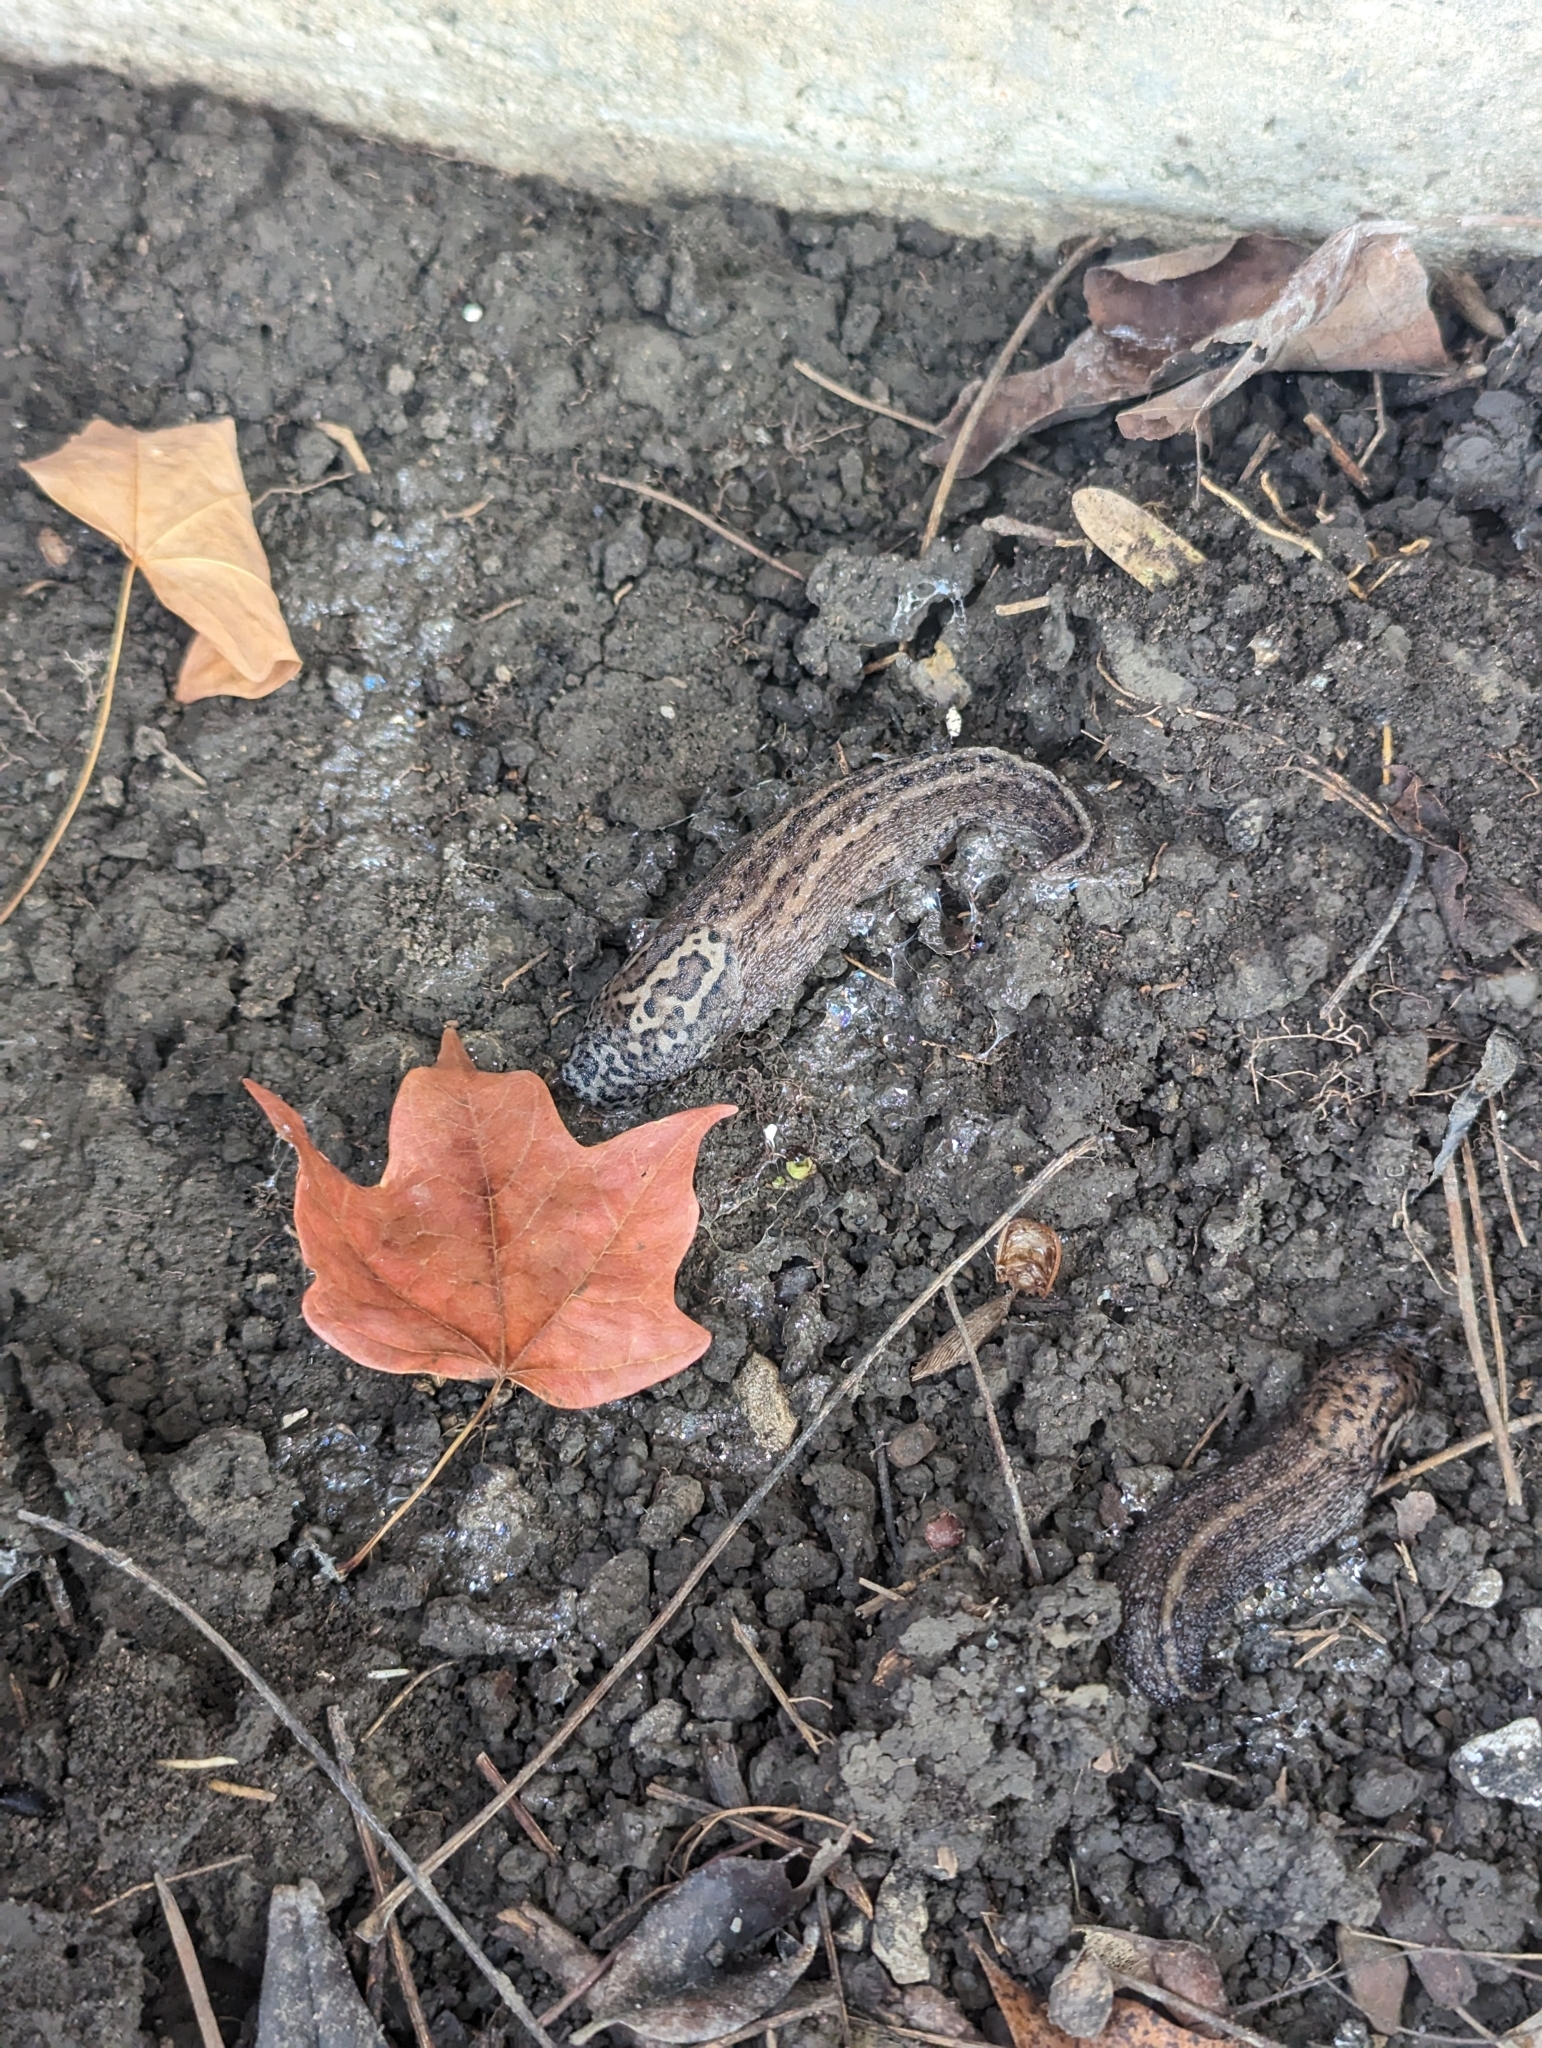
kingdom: Animalia
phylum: Mollusca
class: Gastropoda
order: Stylommatophora
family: Limacidae
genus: Limax
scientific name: Limax maximus
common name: Great grey slug
